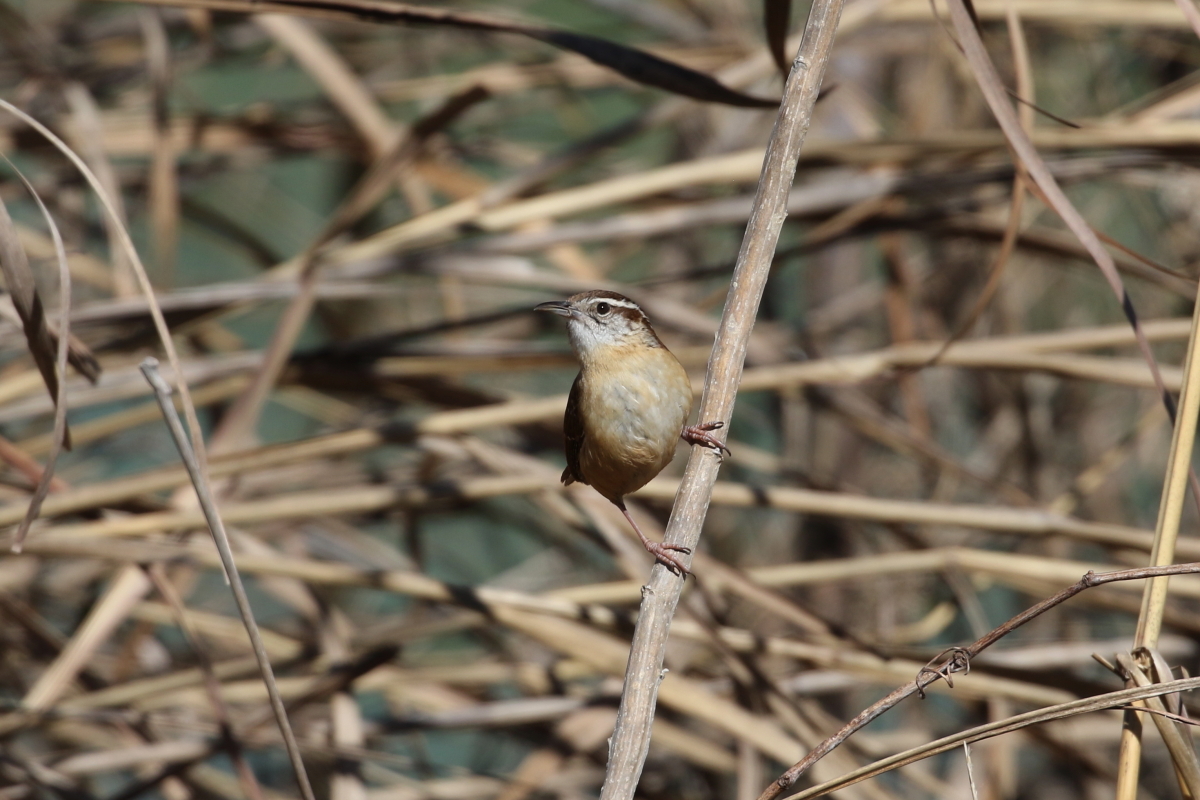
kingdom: Animalia
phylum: Chordata
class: Aves
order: Passeriformes
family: Troglodytidae
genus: Thryothorus
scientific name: Thryothorus ludovicianus
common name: Carolina wren
